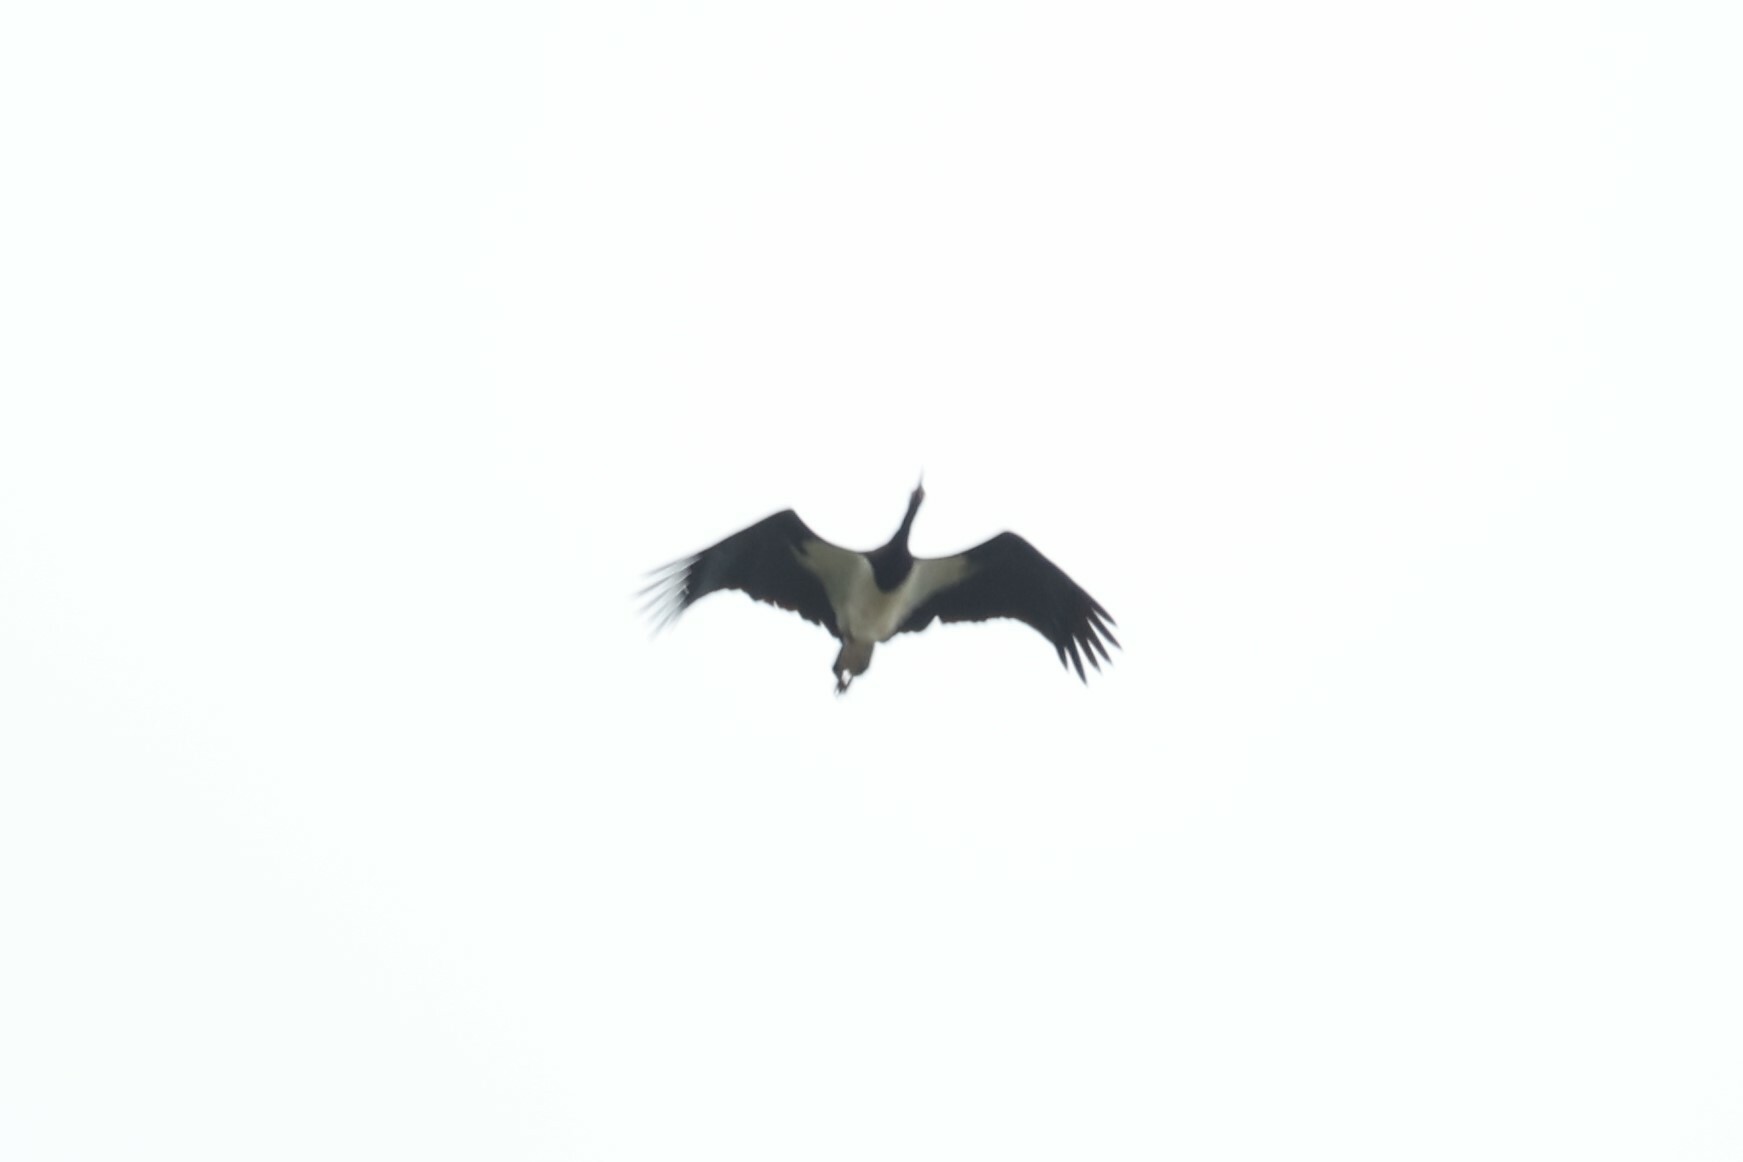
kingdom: Animalia
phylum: Chordata
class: Aves
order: Ciconiiformes
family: Ciconiidae
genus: Ciconia
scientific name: Ciconia abdimii
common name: Abdim's stork
